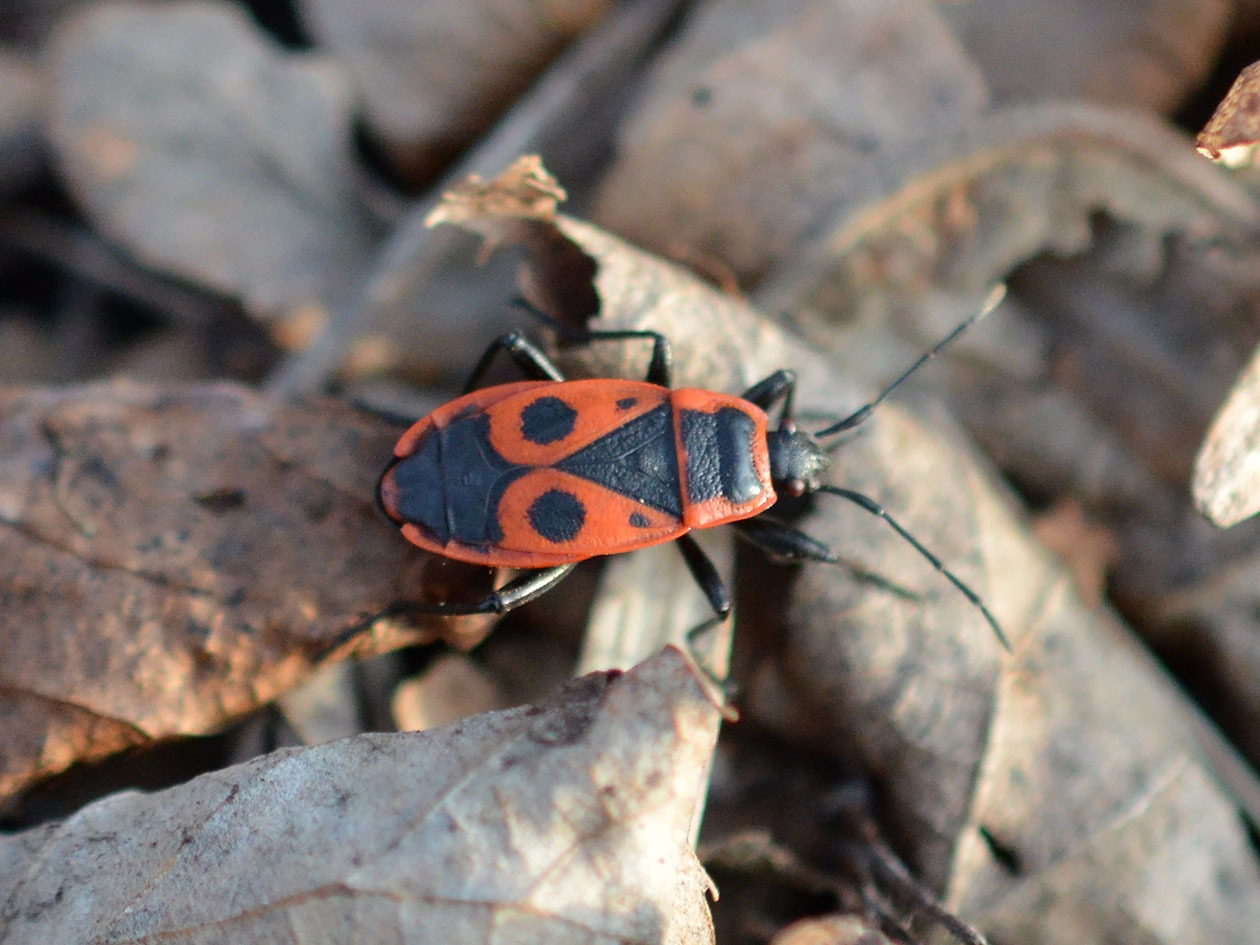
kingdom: Animalia
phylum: Arthropoda
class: Insecta
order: Hemiptera
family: Pyrrhocoridae
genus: Pyrrhocoris
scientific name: Pyrrhocoris apterus
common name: Firebug
